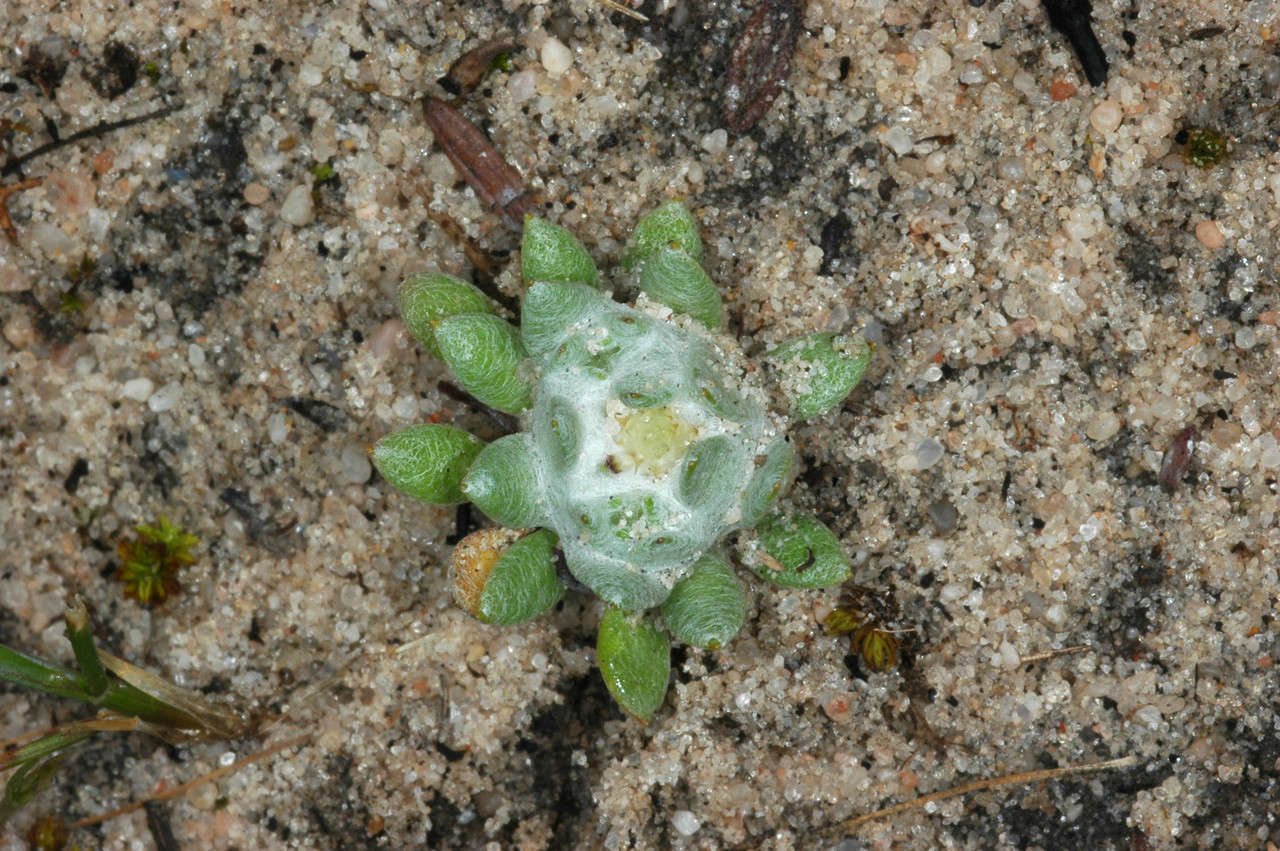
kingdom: Plantae
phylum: Tracheophyta
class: Magnoliopsida
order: Asterales
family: Asteraceae
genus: Actinobole
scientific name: Actinobole uliginosum
